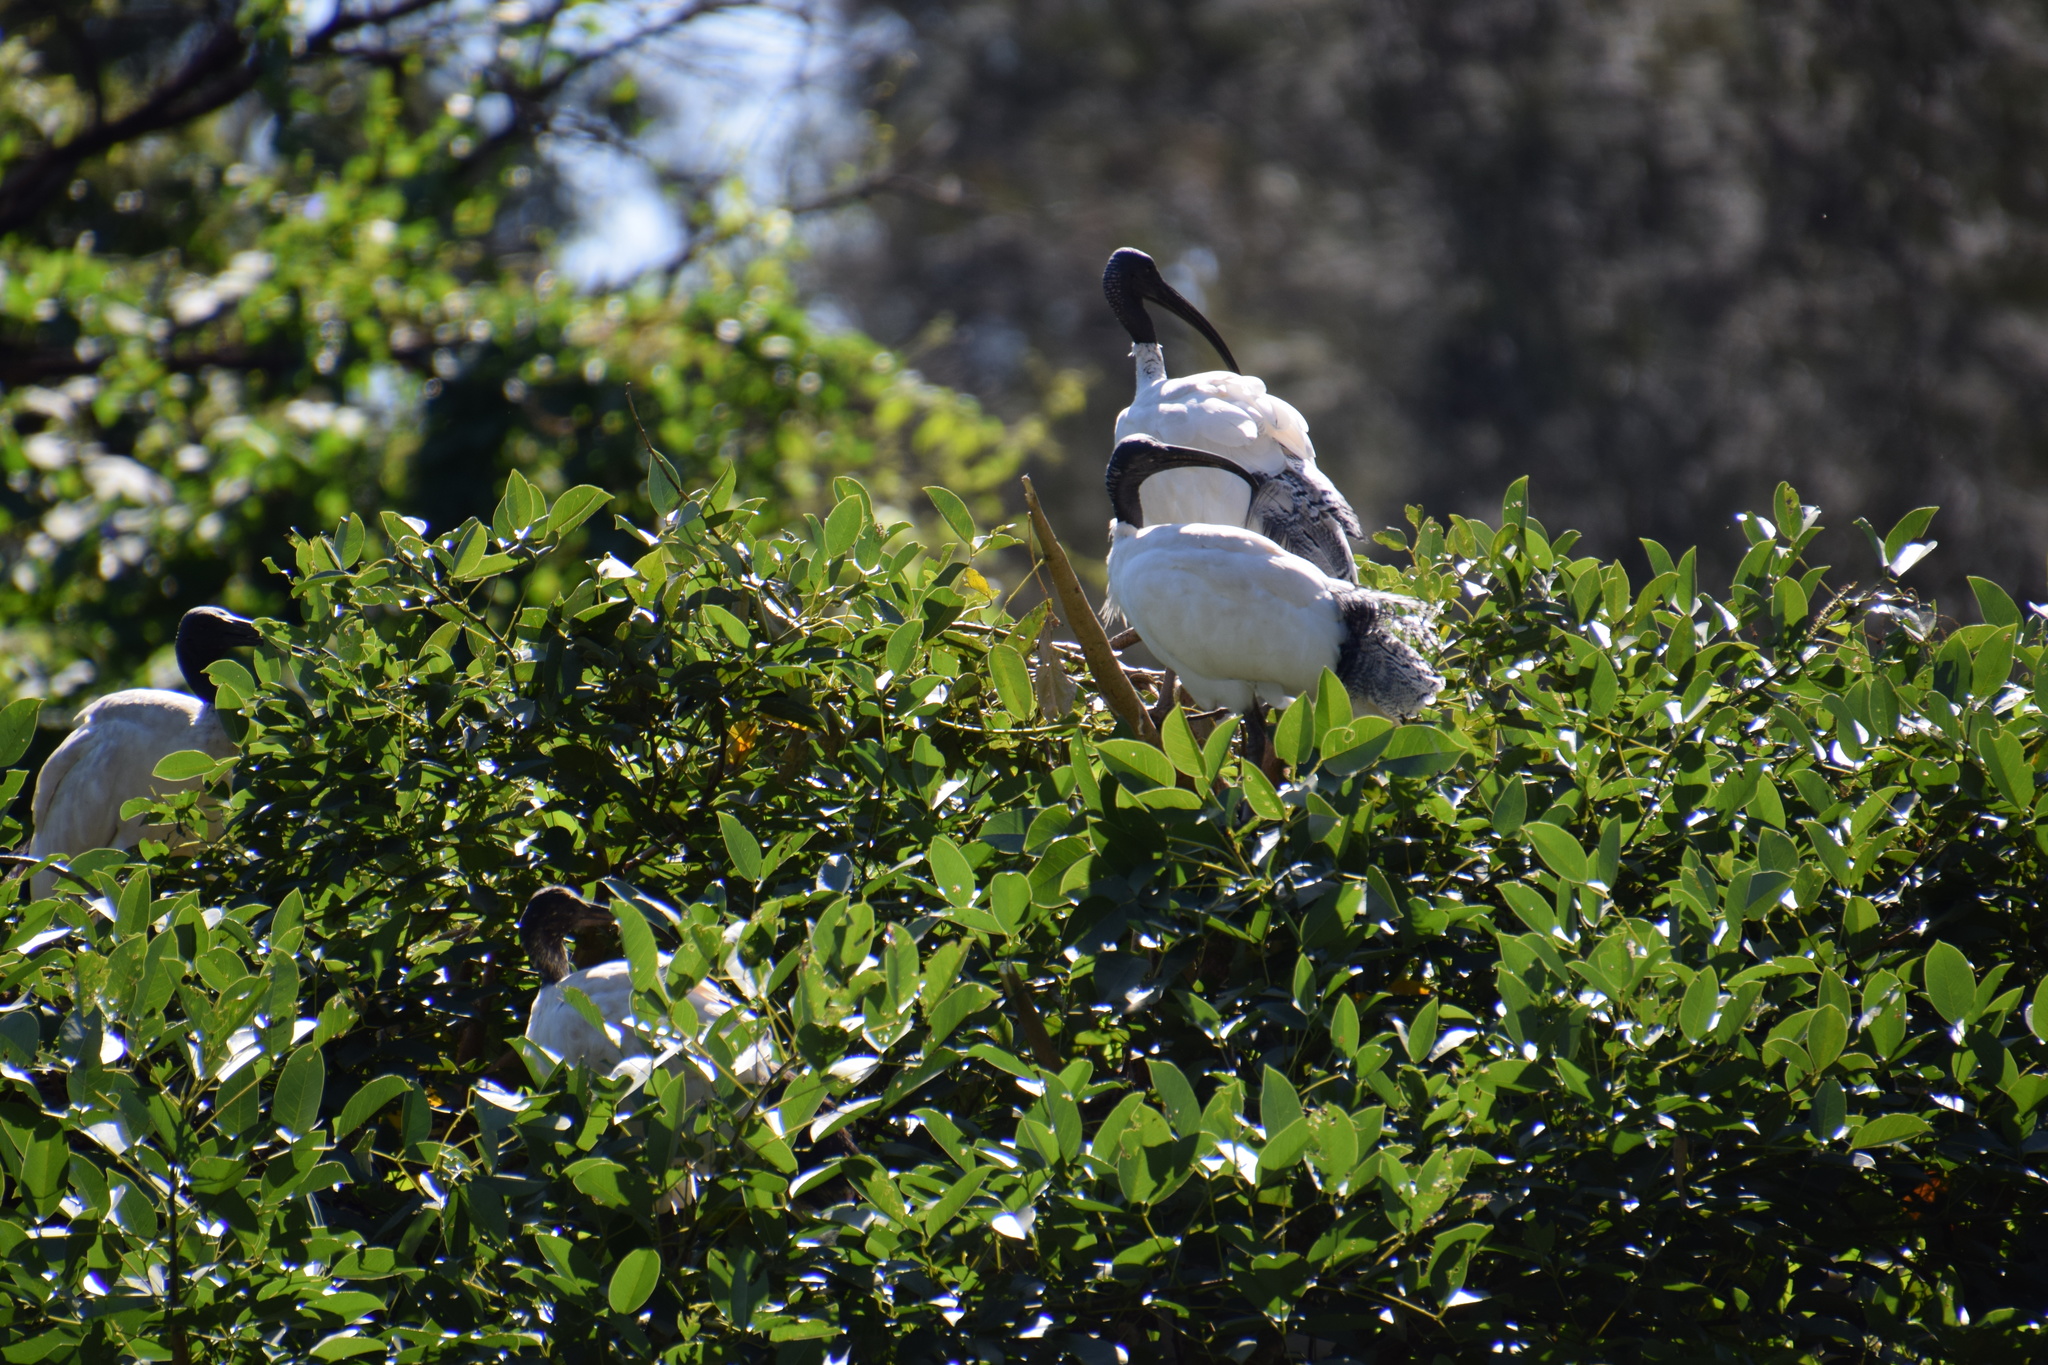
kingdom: Animalia
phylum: Chordata
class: Aves
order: Pelecaniformes
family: Threskiornithidae
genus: Threskiornis
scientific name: Threskiornis molucca
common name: Australian white ibis
